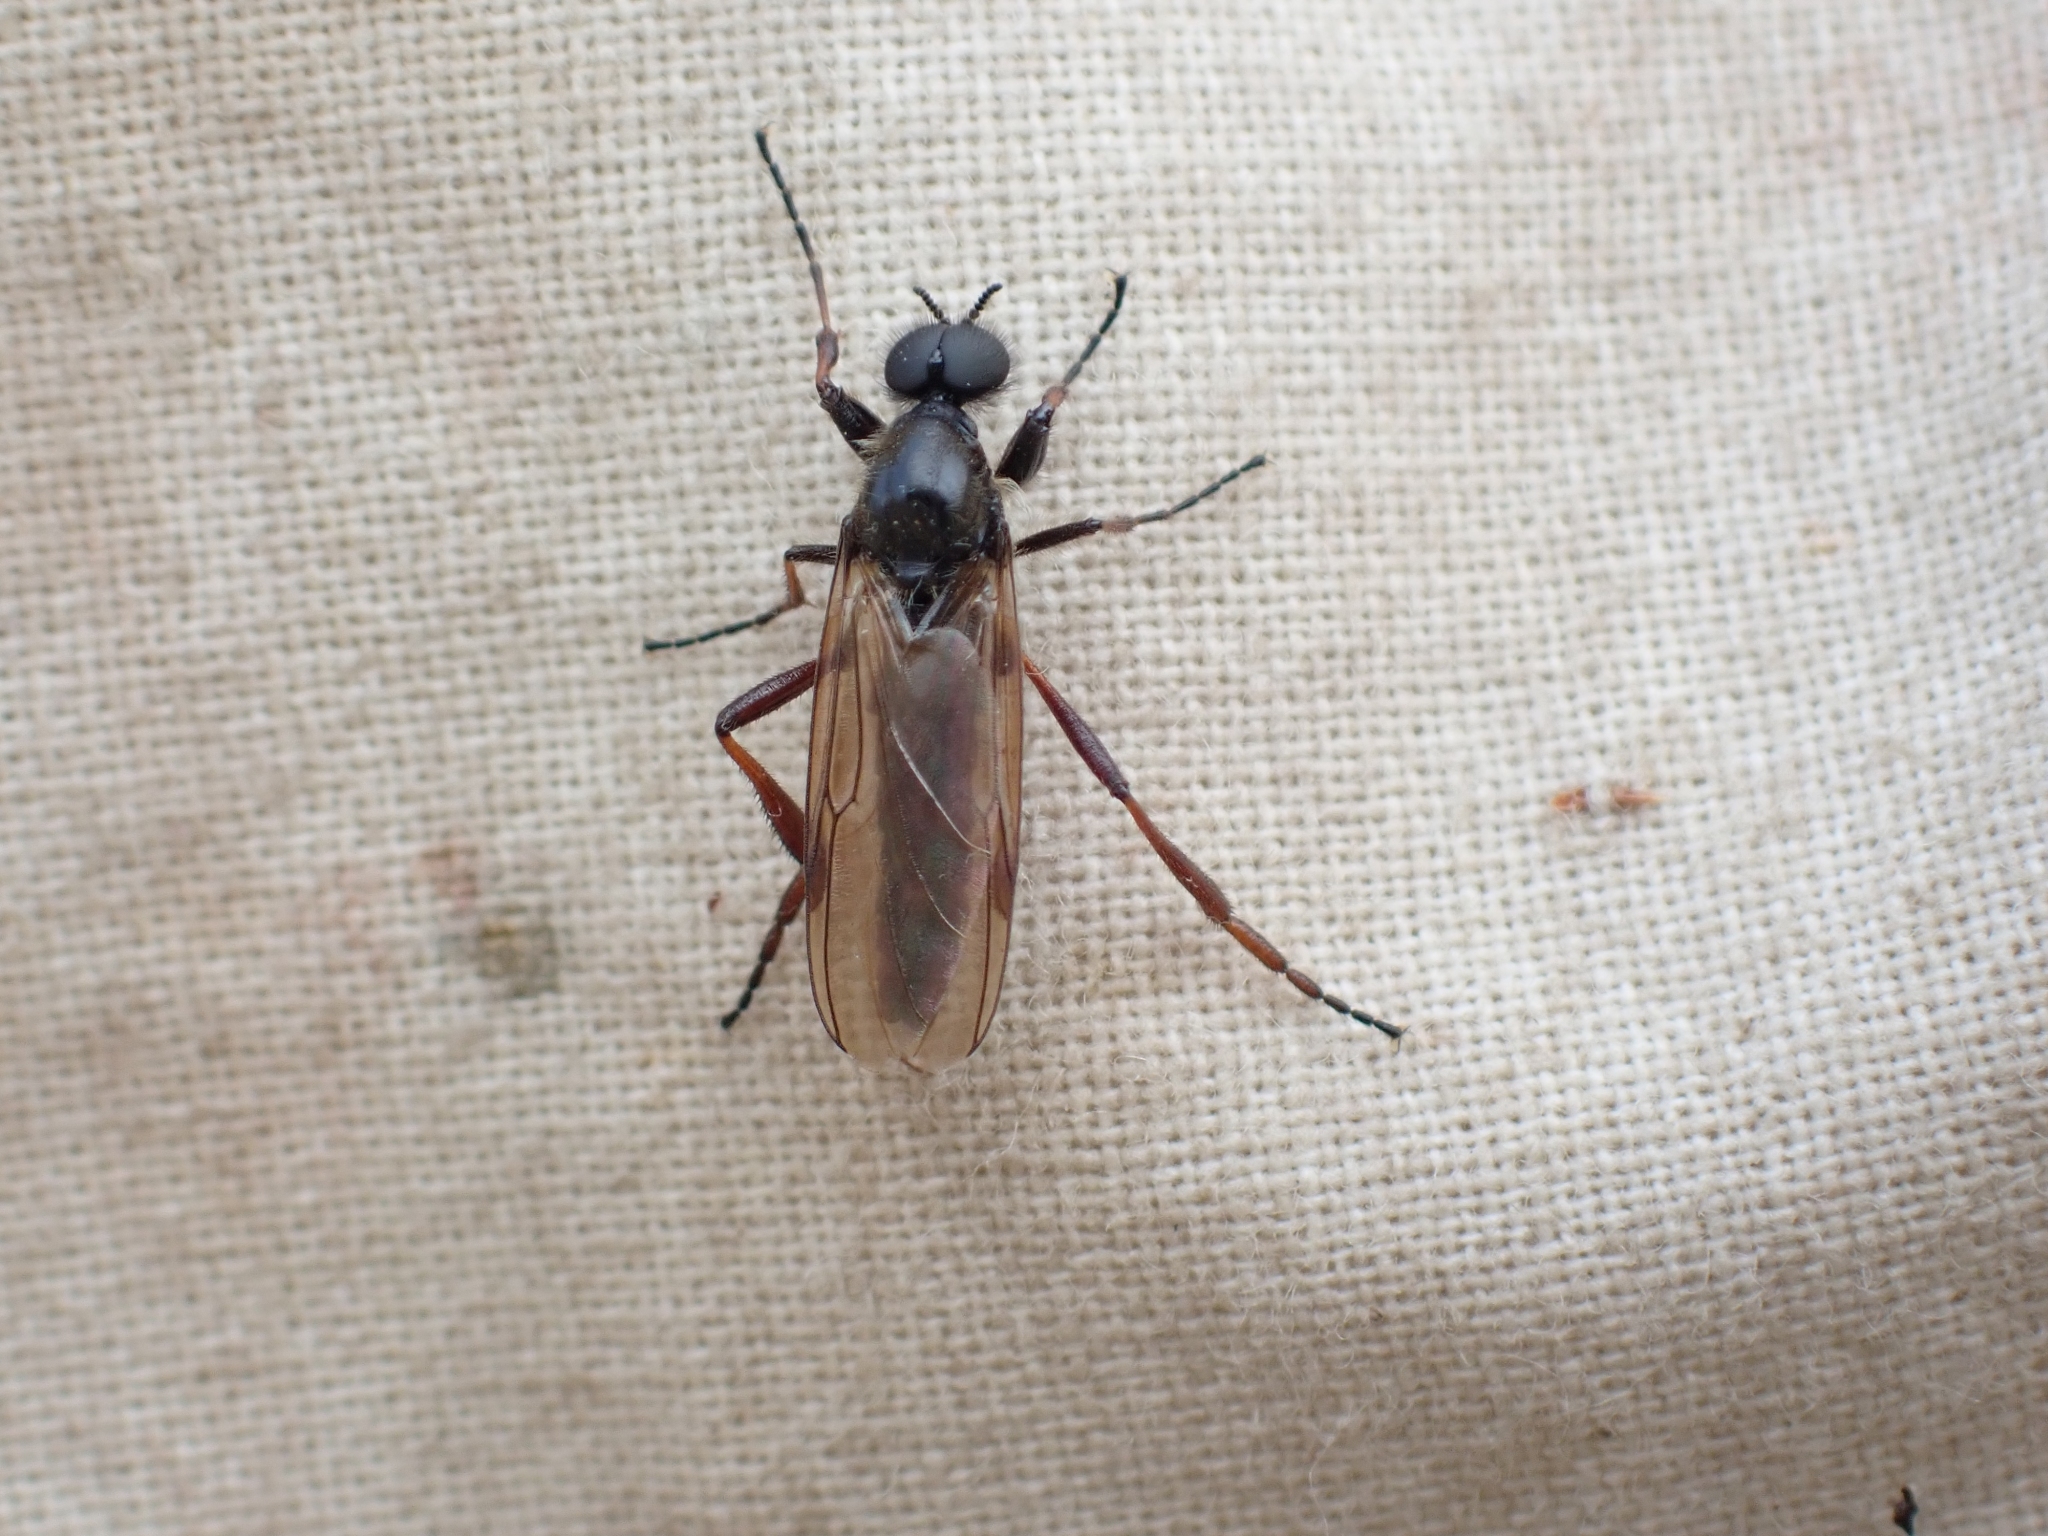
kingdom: Animalia
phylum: Arthropoda
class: Insecta
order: Diptera
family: Bibionidae
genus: Bibio
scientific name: Bibio brunnipes
